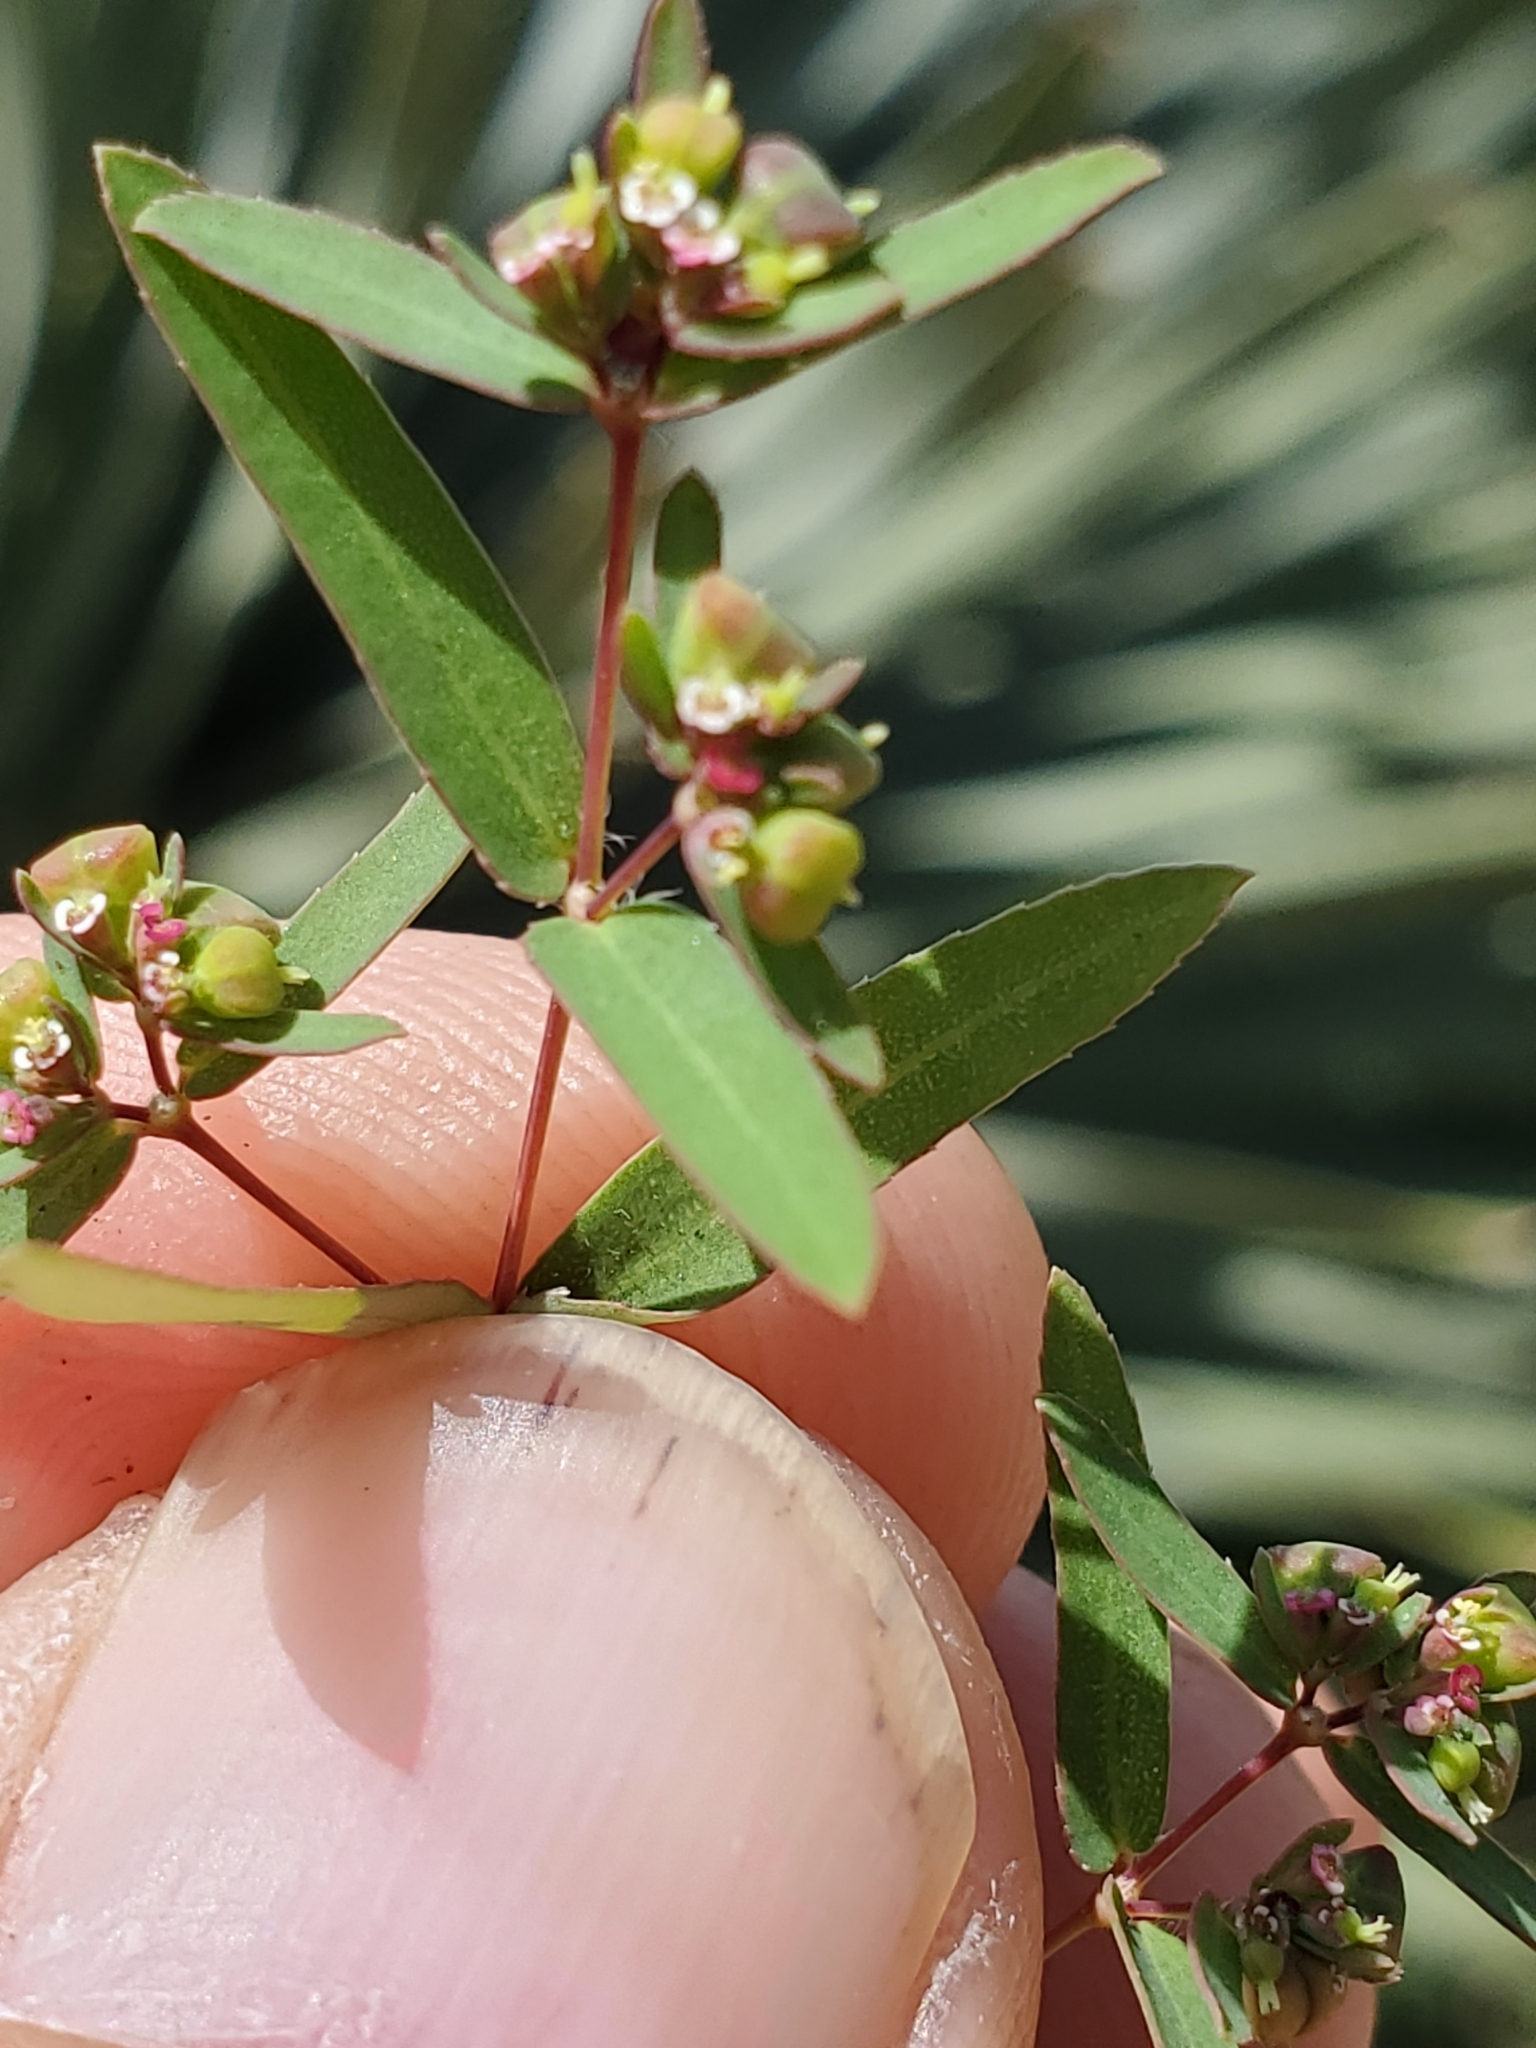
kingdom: Plantae
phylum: Tracheophyta
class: Magnoliopsida
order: Malpighiales
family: Euphorbiaceae
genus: Euphorbia
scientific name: Euphorbia hyssopifolia
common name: Hyssopleaf sandmat
